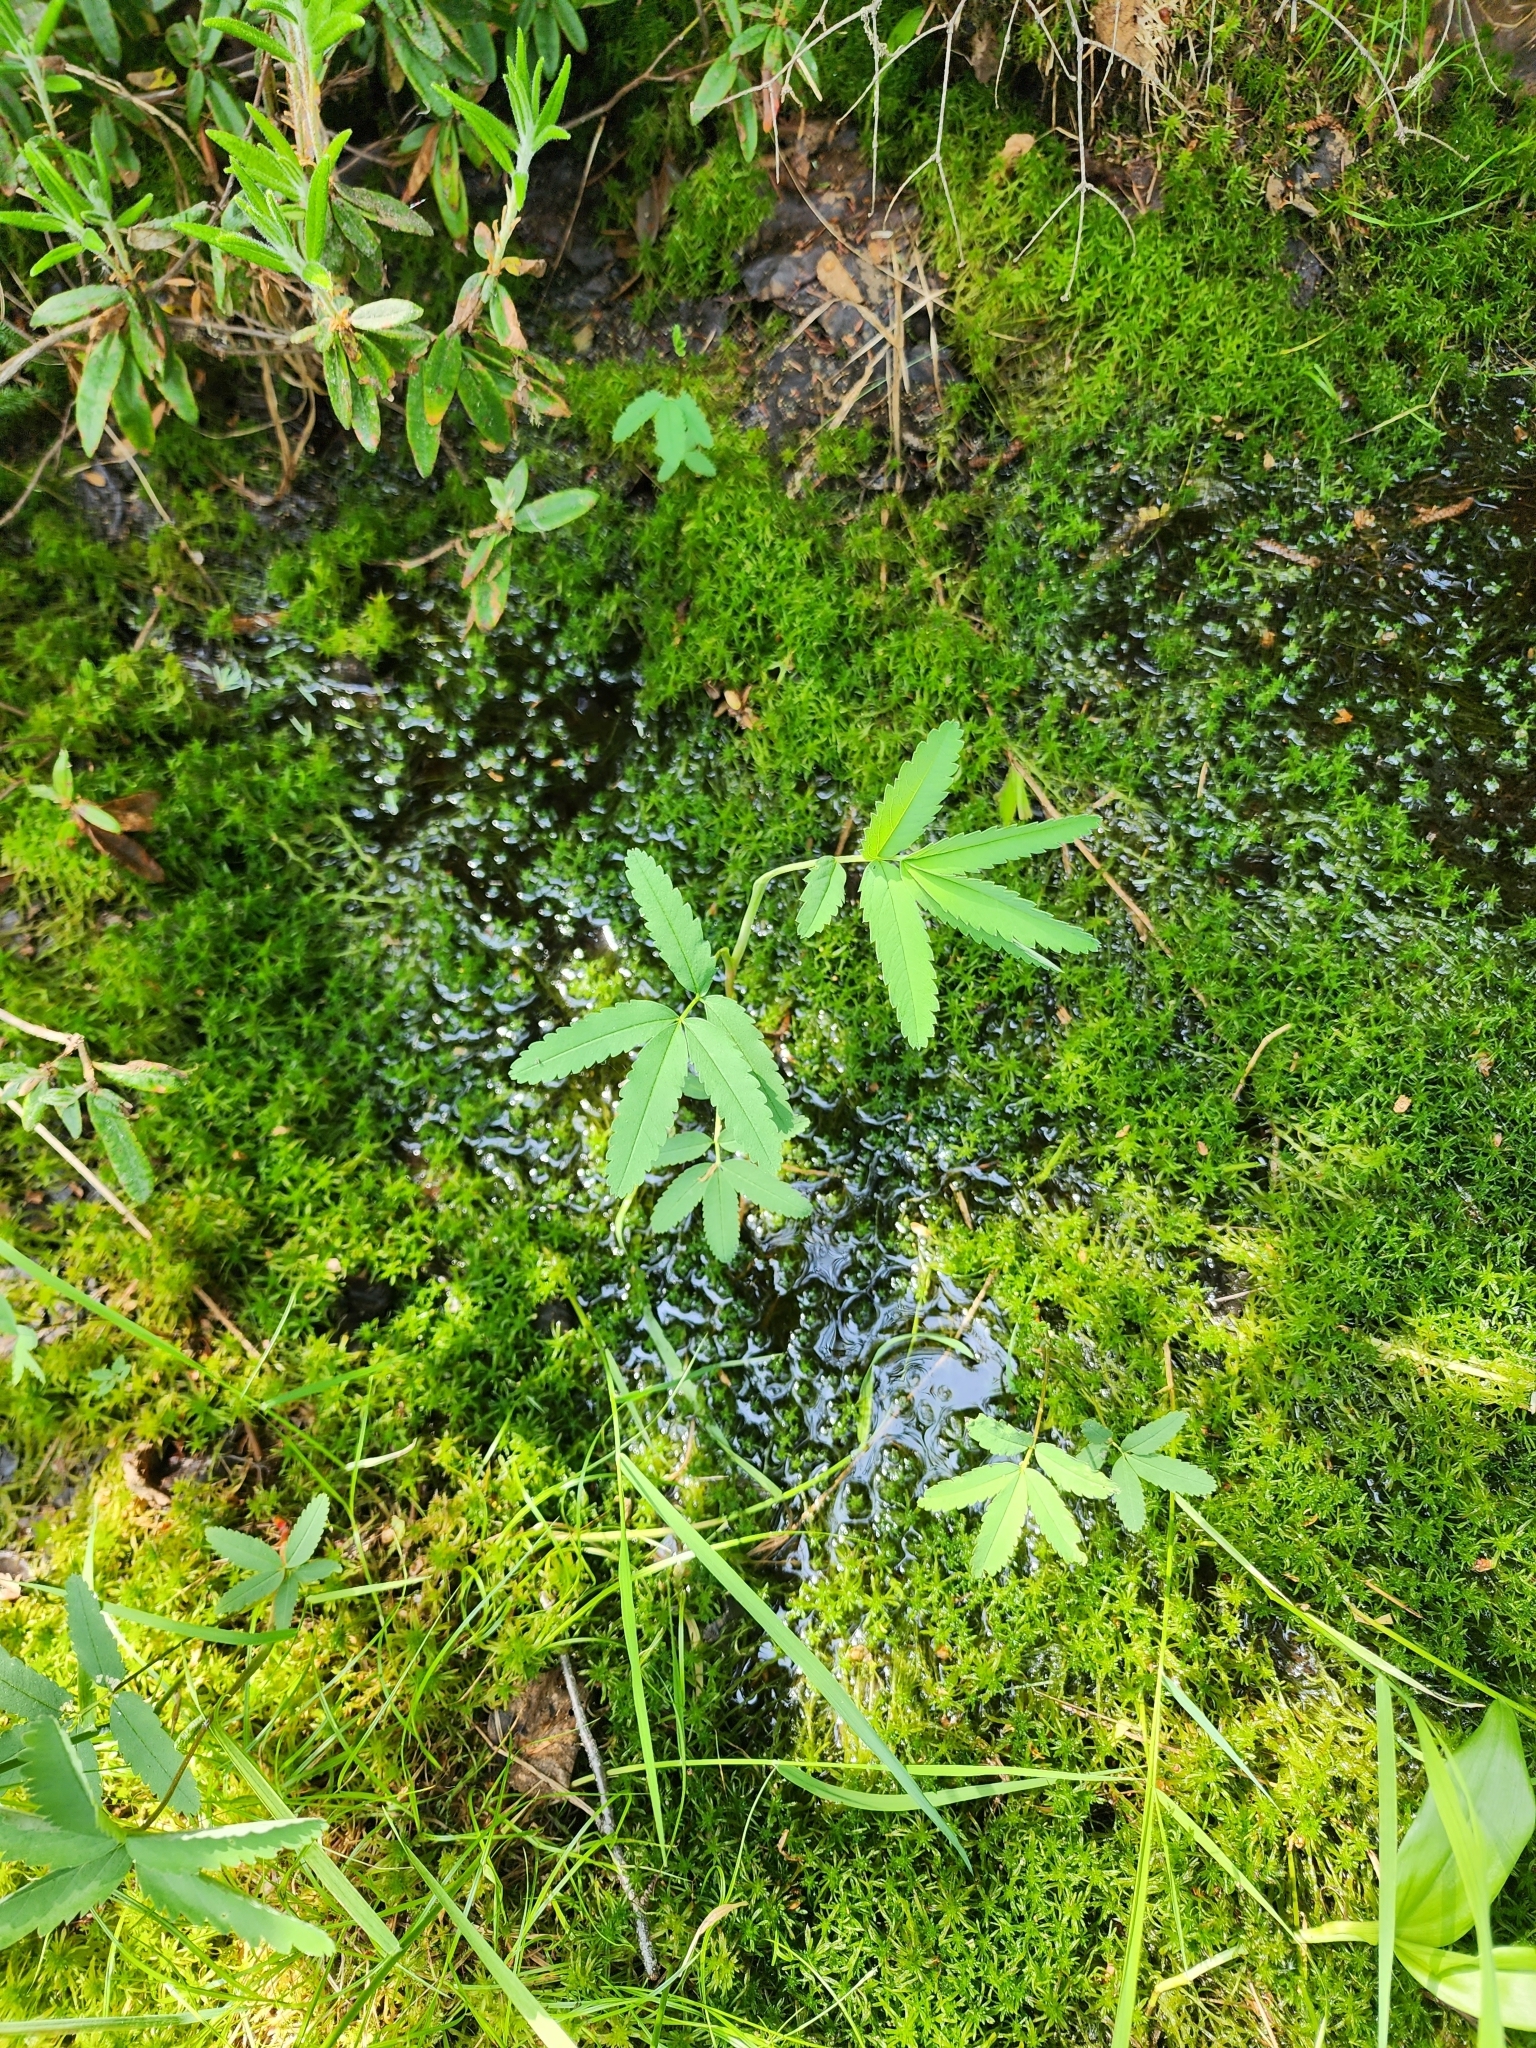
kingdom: Plantae
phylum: Tracheophyta
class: Magnoliopsida
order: Rosales
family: Rosaceae
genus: Comarum
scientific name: Comarum palustre
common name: Marsh cinquefoil
